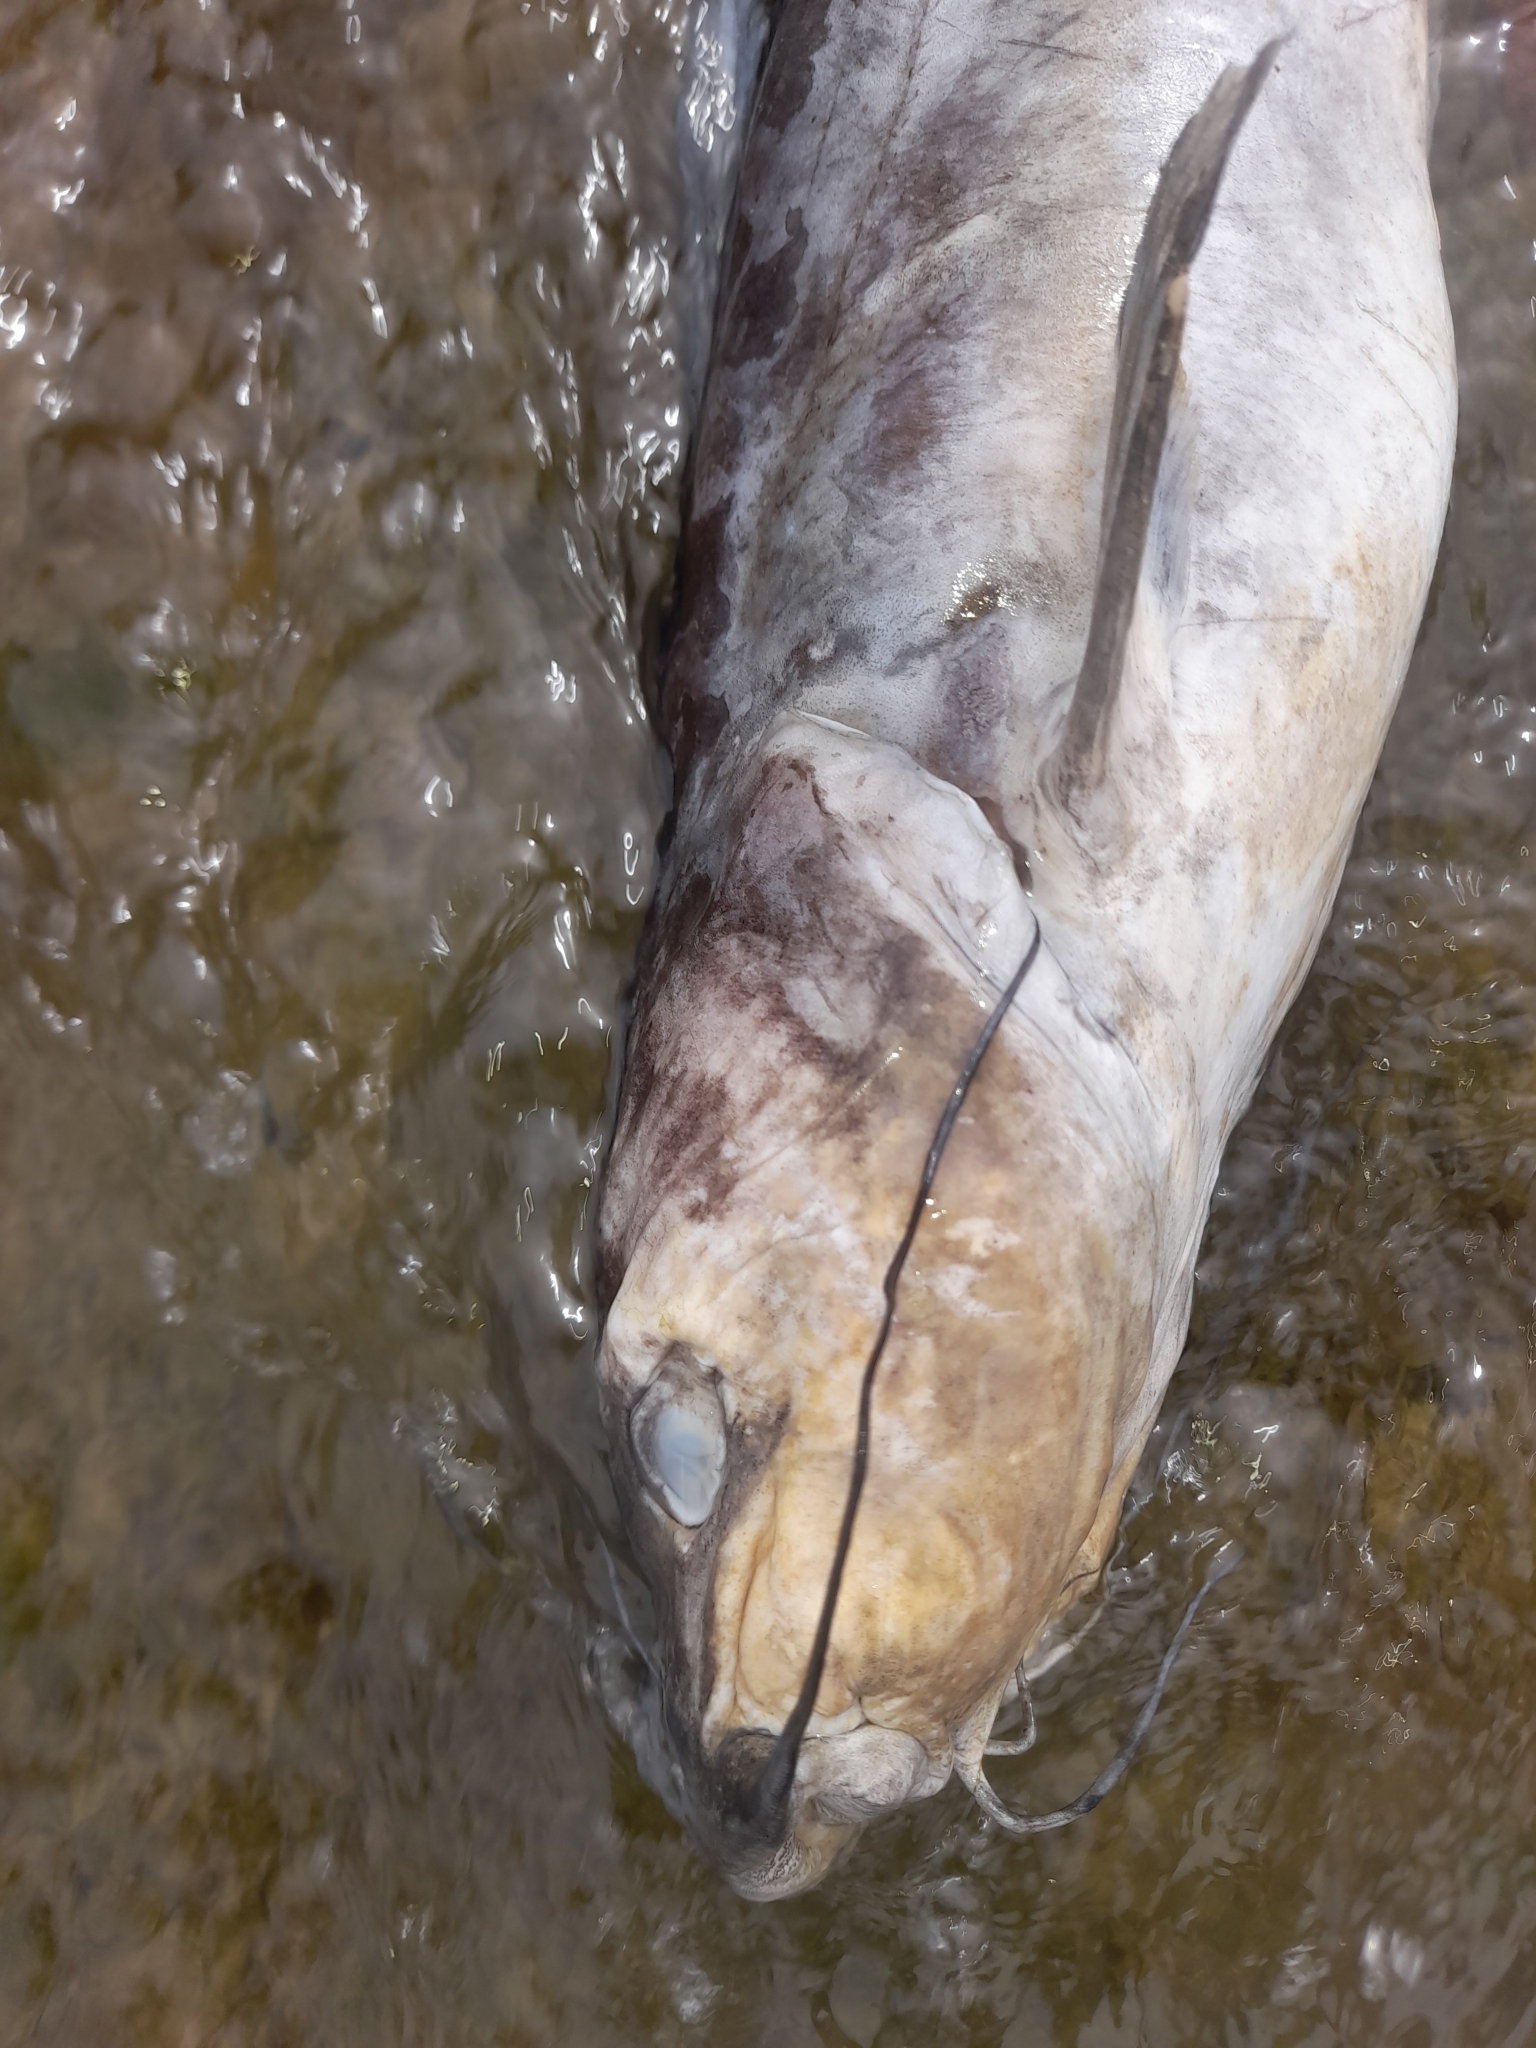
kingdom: Animalia
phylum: Chordata
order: Siluriformes
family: Ictaluridae
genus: Ictalurus
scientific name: Ictalurus punctatus
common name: Channel catfish
